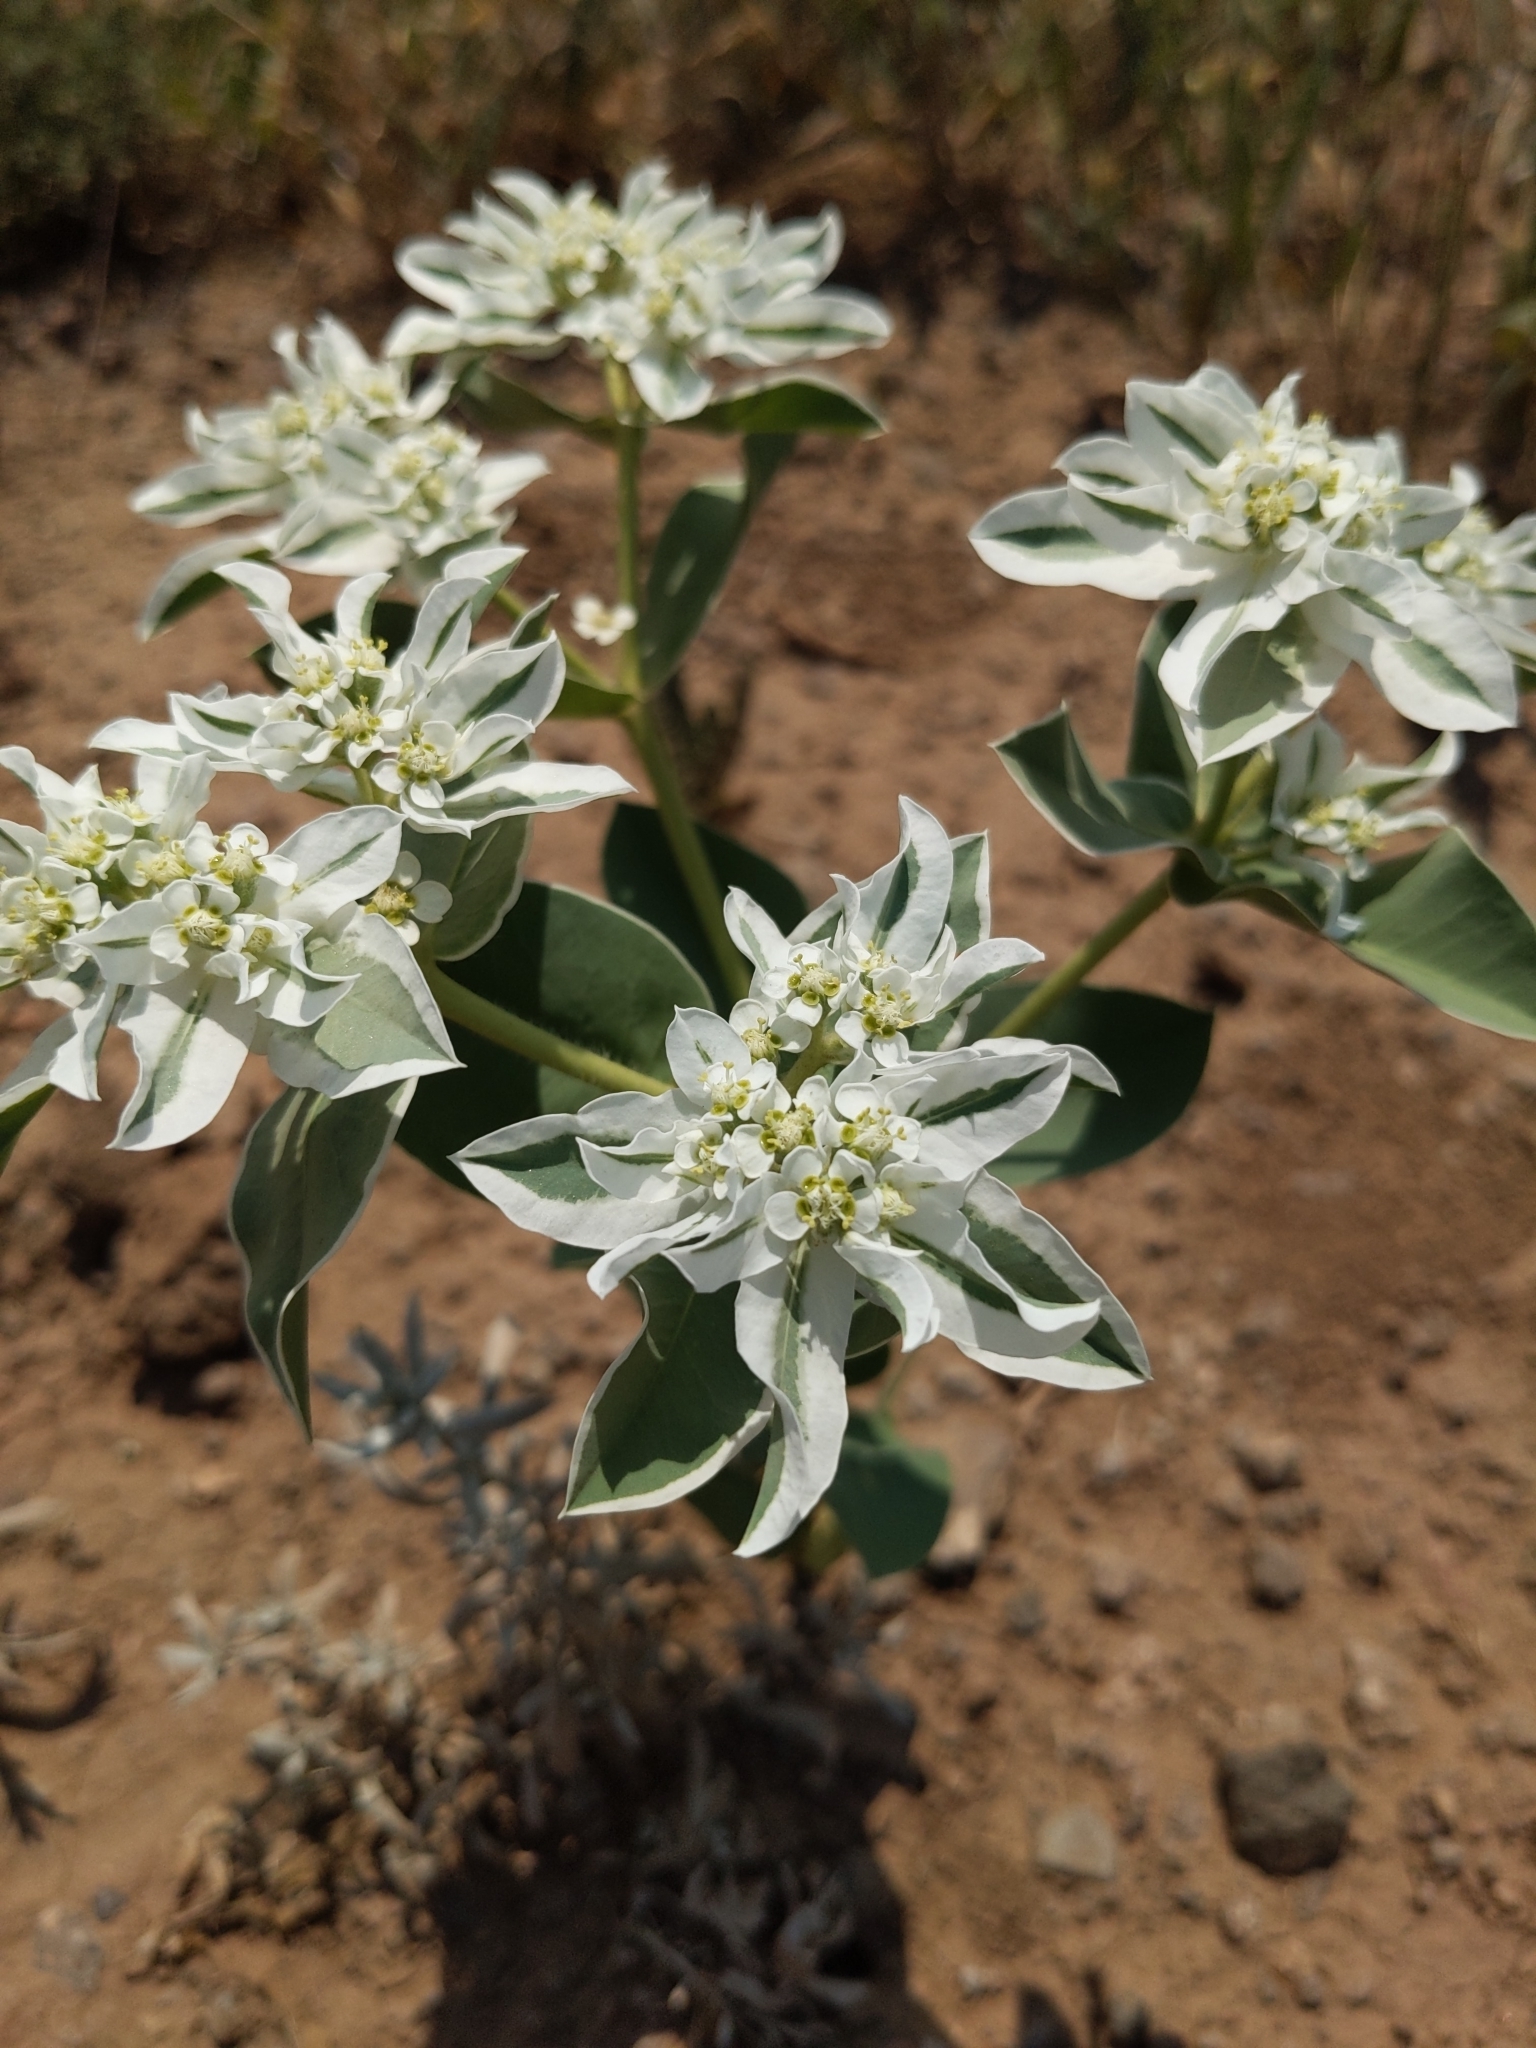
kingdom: Plantae
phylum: Tracheophyta
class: Magnoliopsida
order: Malpighiales
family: Euphorbiaceae
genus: Euphorbia
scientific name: Euphorbia marginata
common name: Ghostweed
